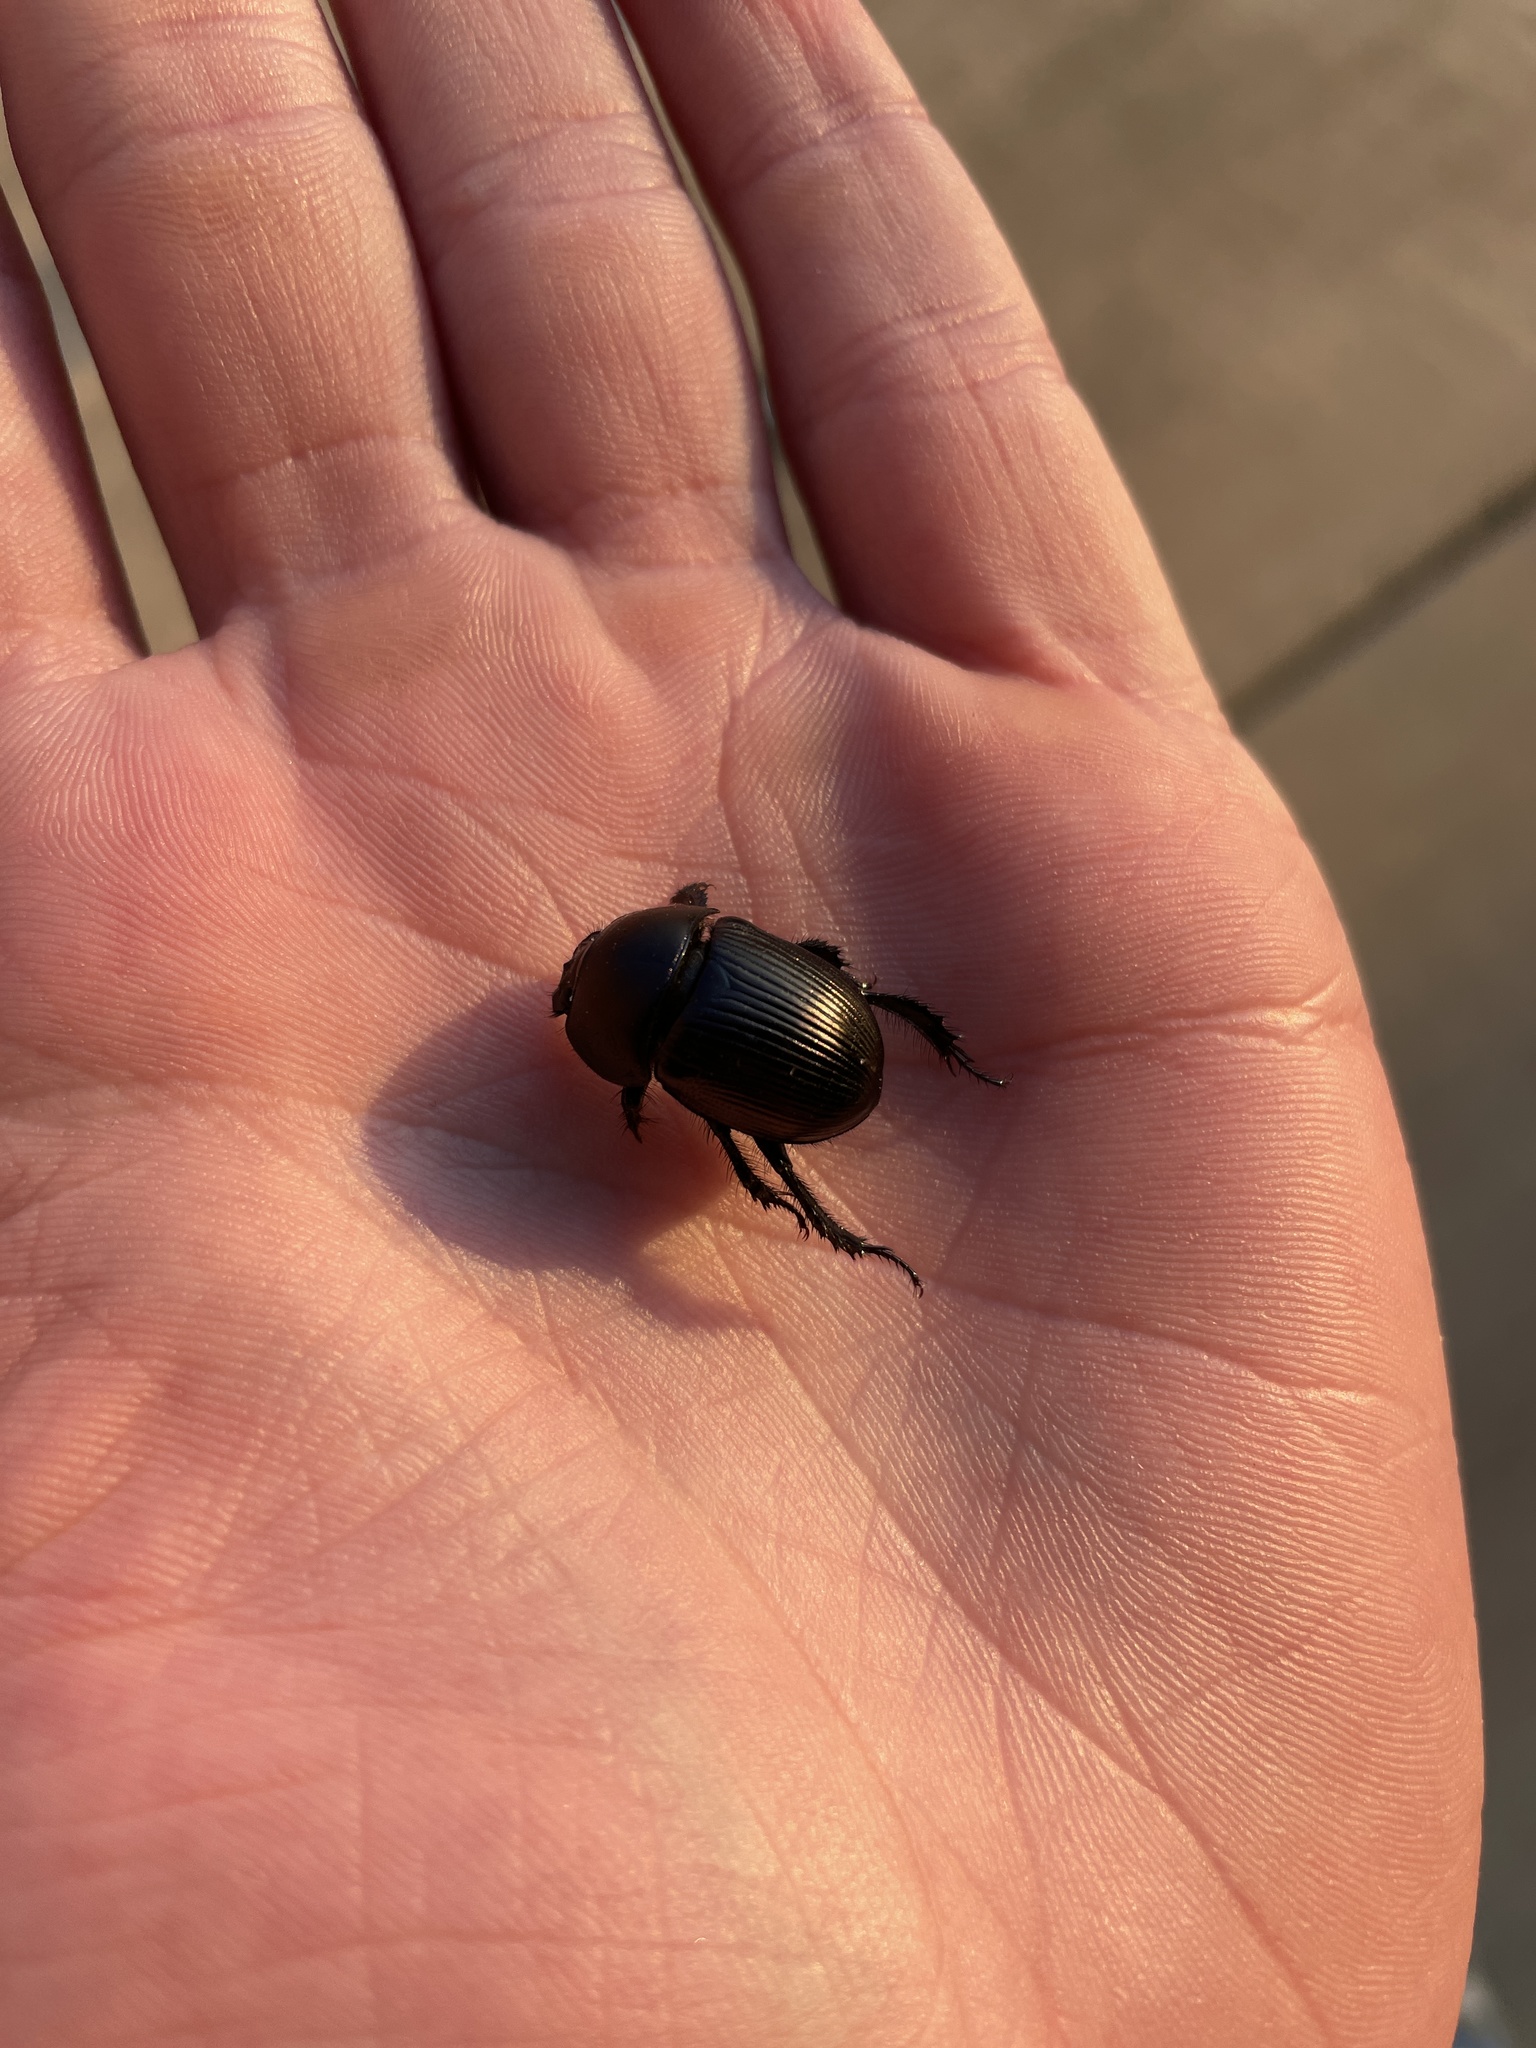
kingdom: Animalia
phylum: Arthropoda
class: Insecta
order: Coleoptera
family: Geotrupidae
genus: Cnemotrupes
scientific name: Cnemotrupes semiopacus
